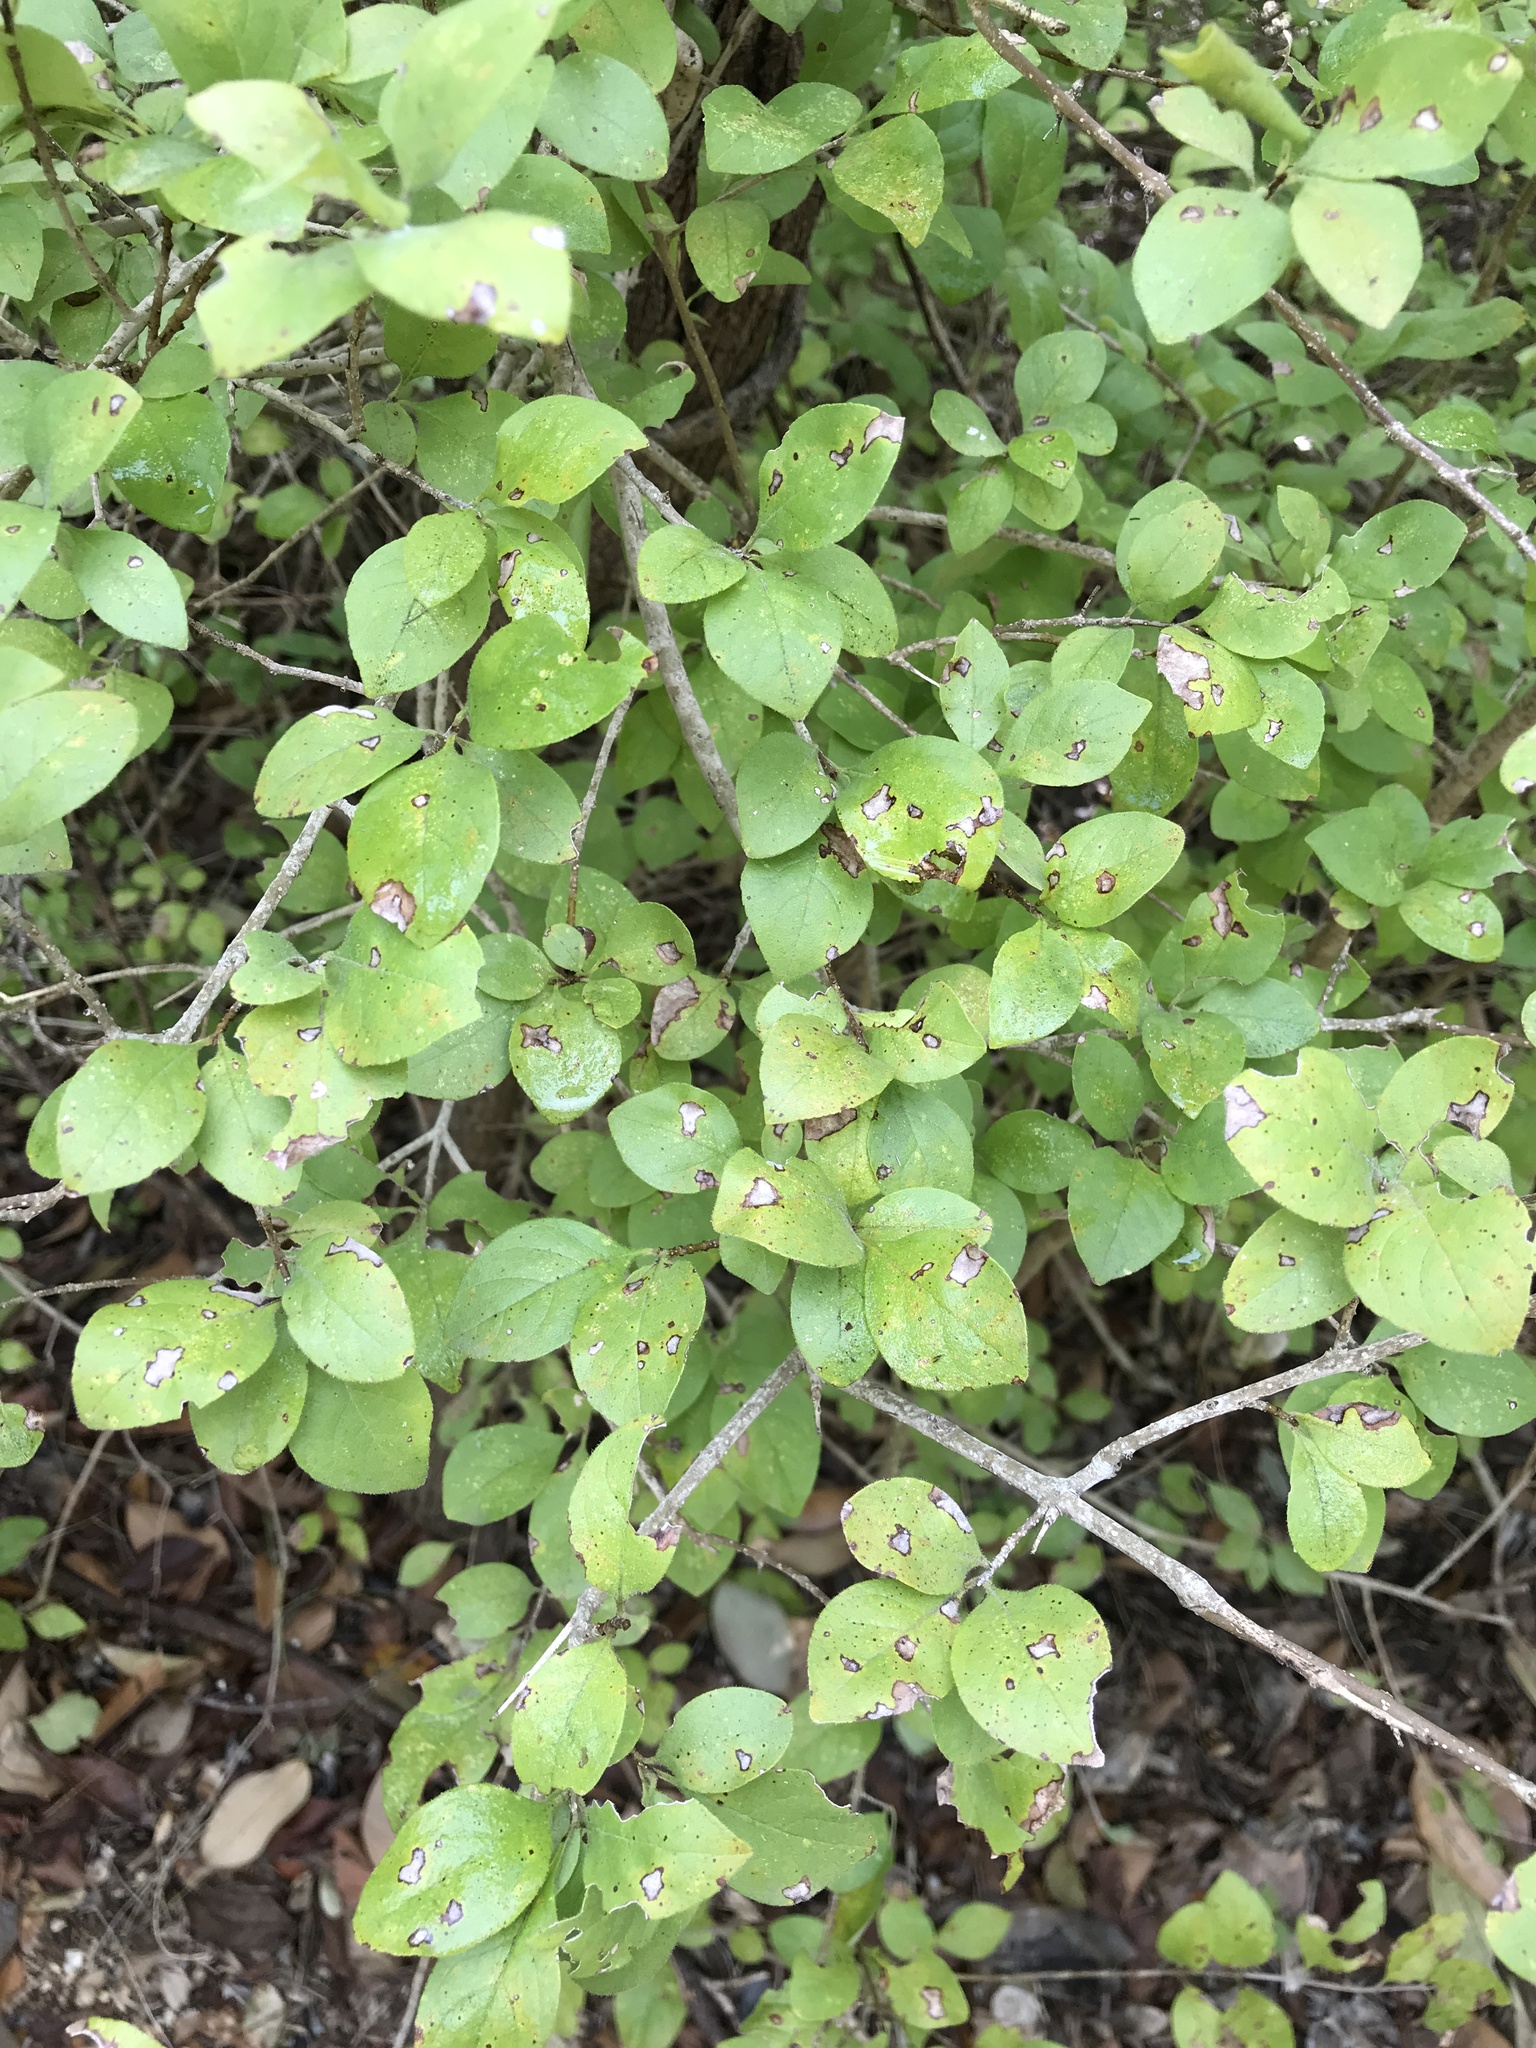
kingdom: Plantae
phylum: Tracheophyta
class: Magnoliopsida
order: Lamiales
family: Oleaceae
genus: Forestiera
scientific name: Forestiera pubescens
